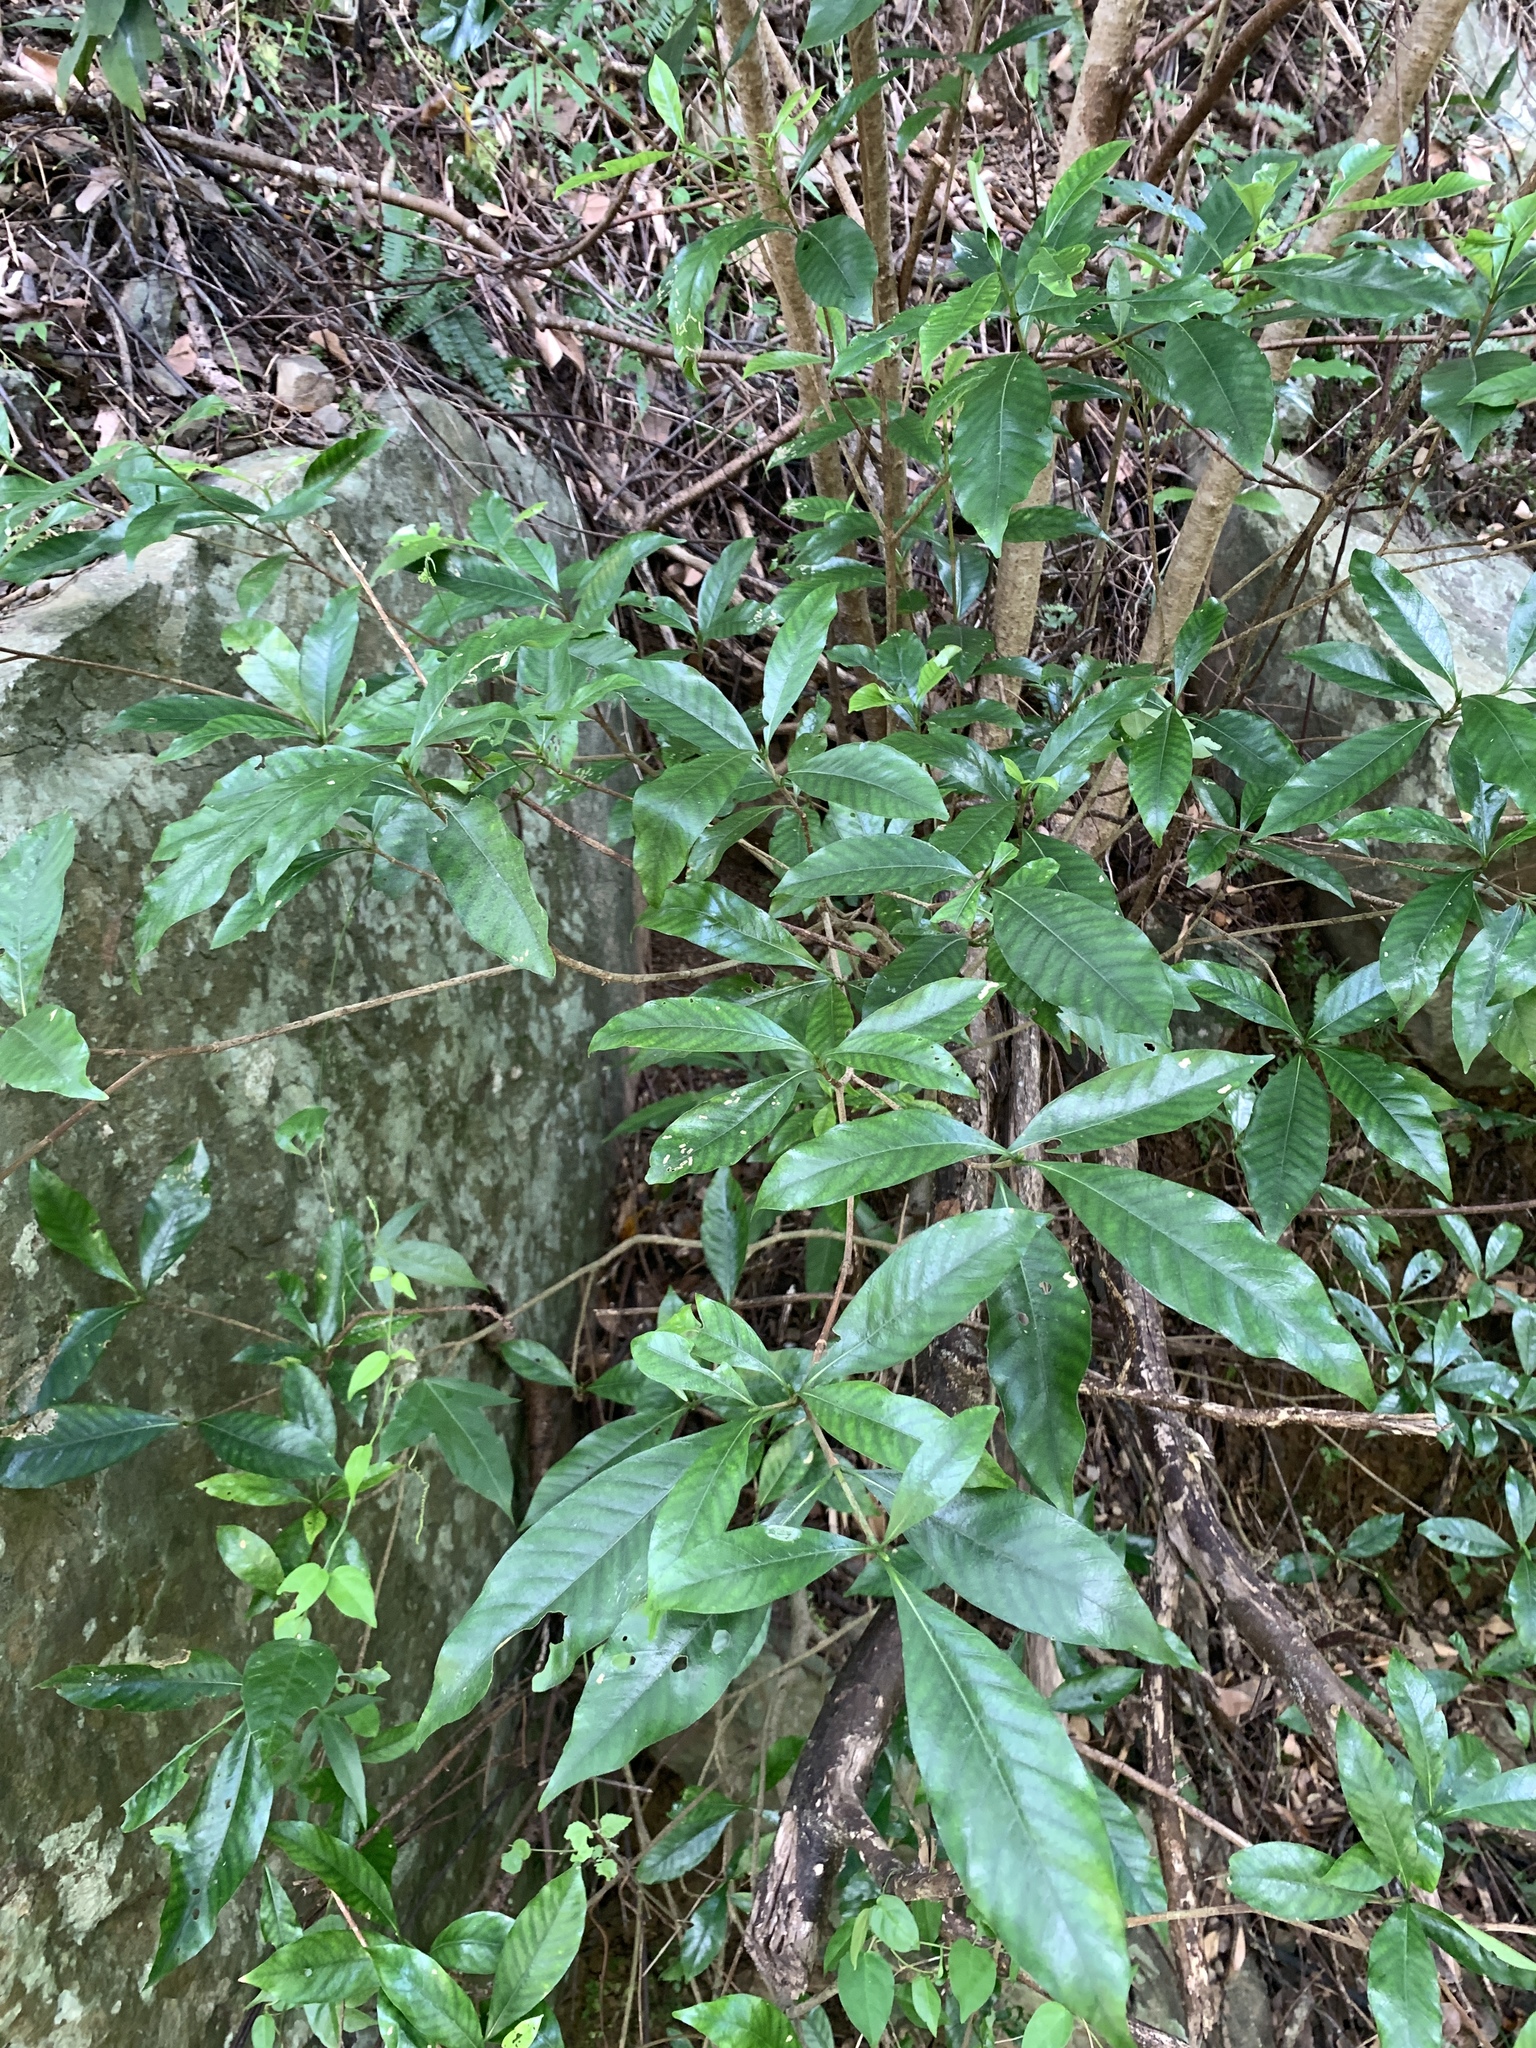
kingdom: Plantae
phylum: Tracheophyta
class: Magnoliopsida
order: Gentianales
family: Rubiaceae
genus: Gardenia
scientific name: Gardenia jasminoides
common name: Cape-jasmine
